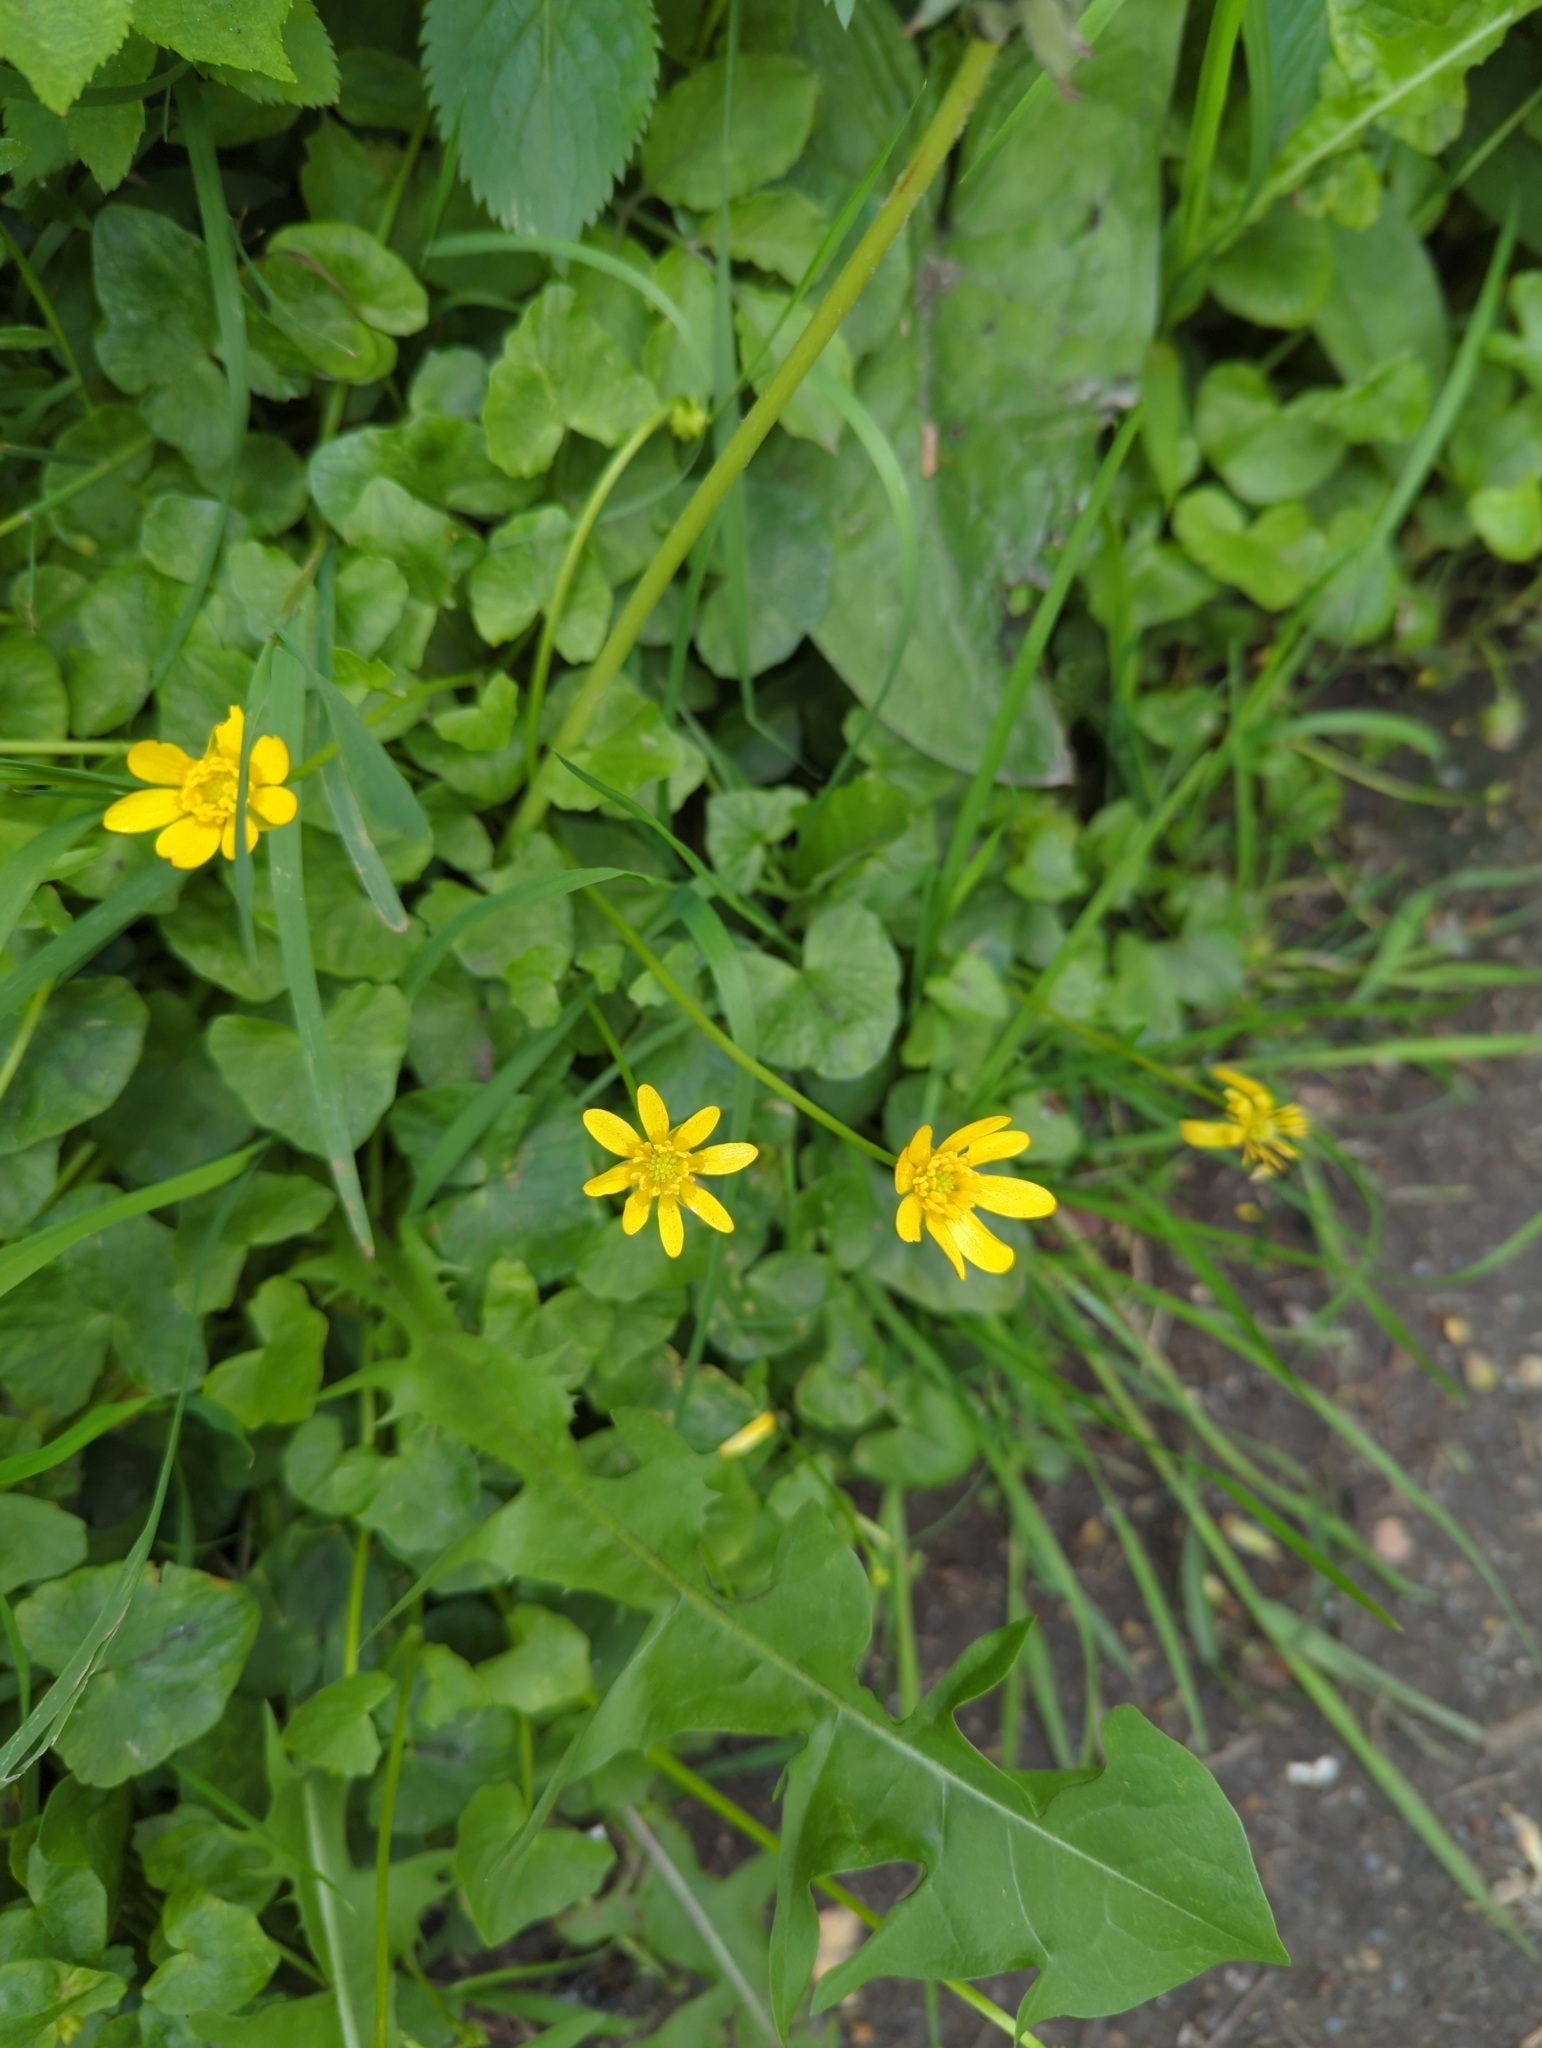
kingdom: Plantae
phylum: Tracheophyta
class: Magnoliopsida
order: Ranunculales
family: Ranunculaceae
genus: Ficaria
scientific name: Ficaria verna
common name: Lesser celandine
